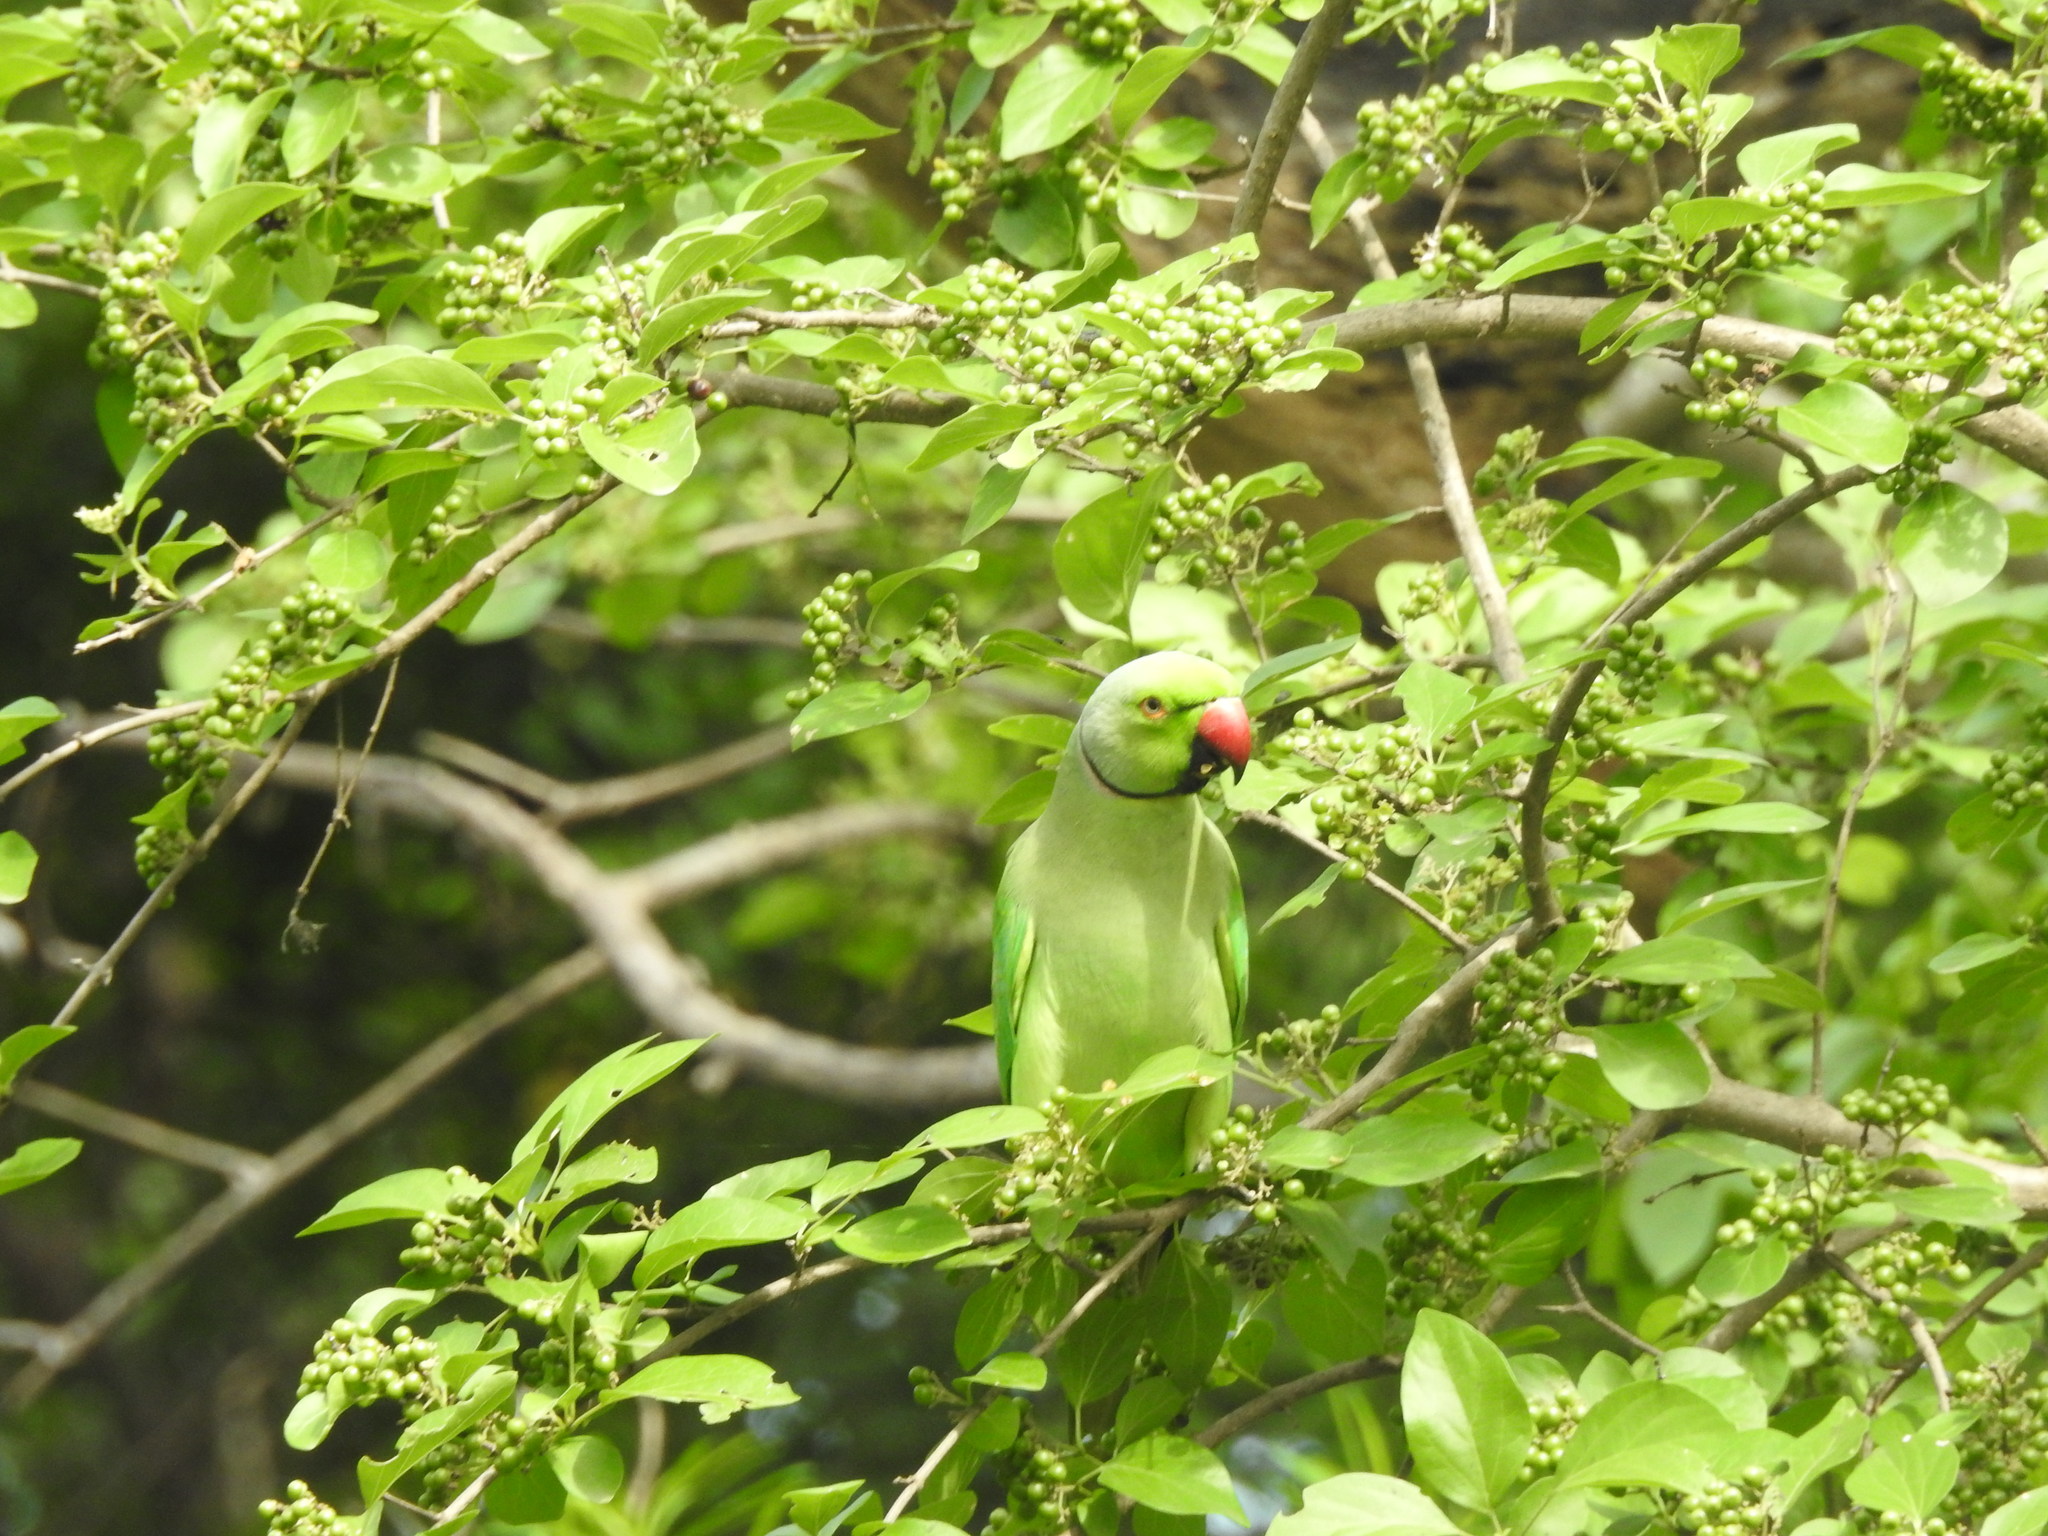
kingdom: Animalia
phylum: Chordata
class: Aves
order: Psittaciformes
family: Psittacidae
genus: Psittacula
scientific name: Psittacula krameri
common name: Rose-ringed parakeet
